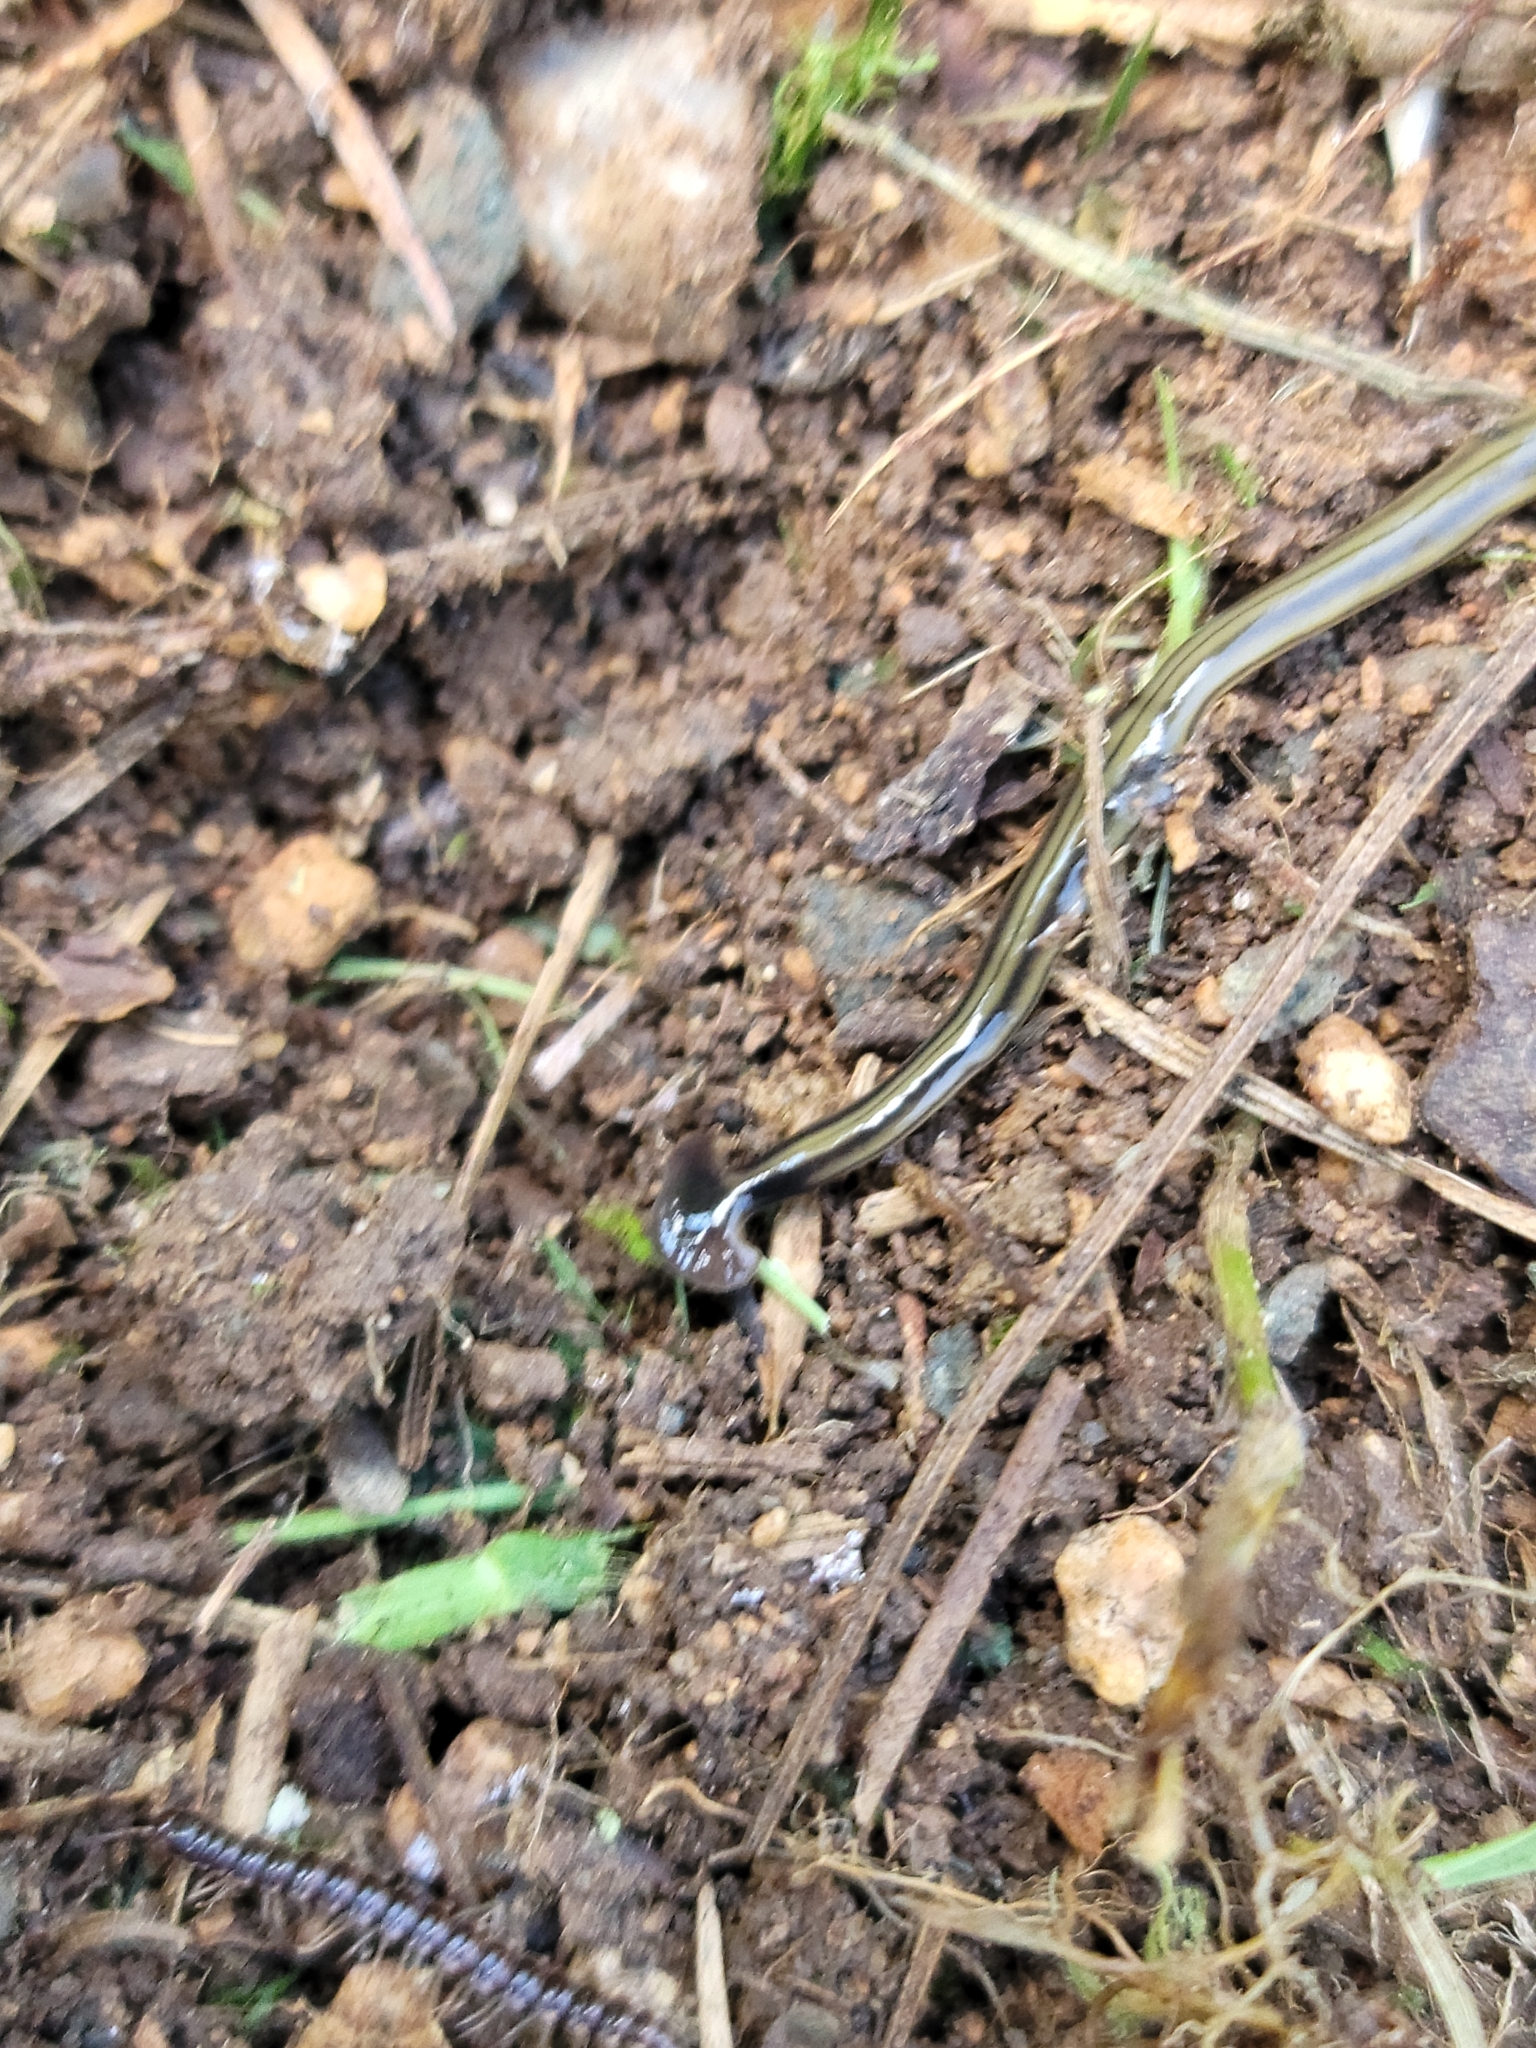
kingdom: Animalia
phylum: Platyhelminthes
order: Tricladida
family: Geoplanidae
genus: Bipalium
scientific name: Bipalium kewense
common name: Hammerhead flatworm
